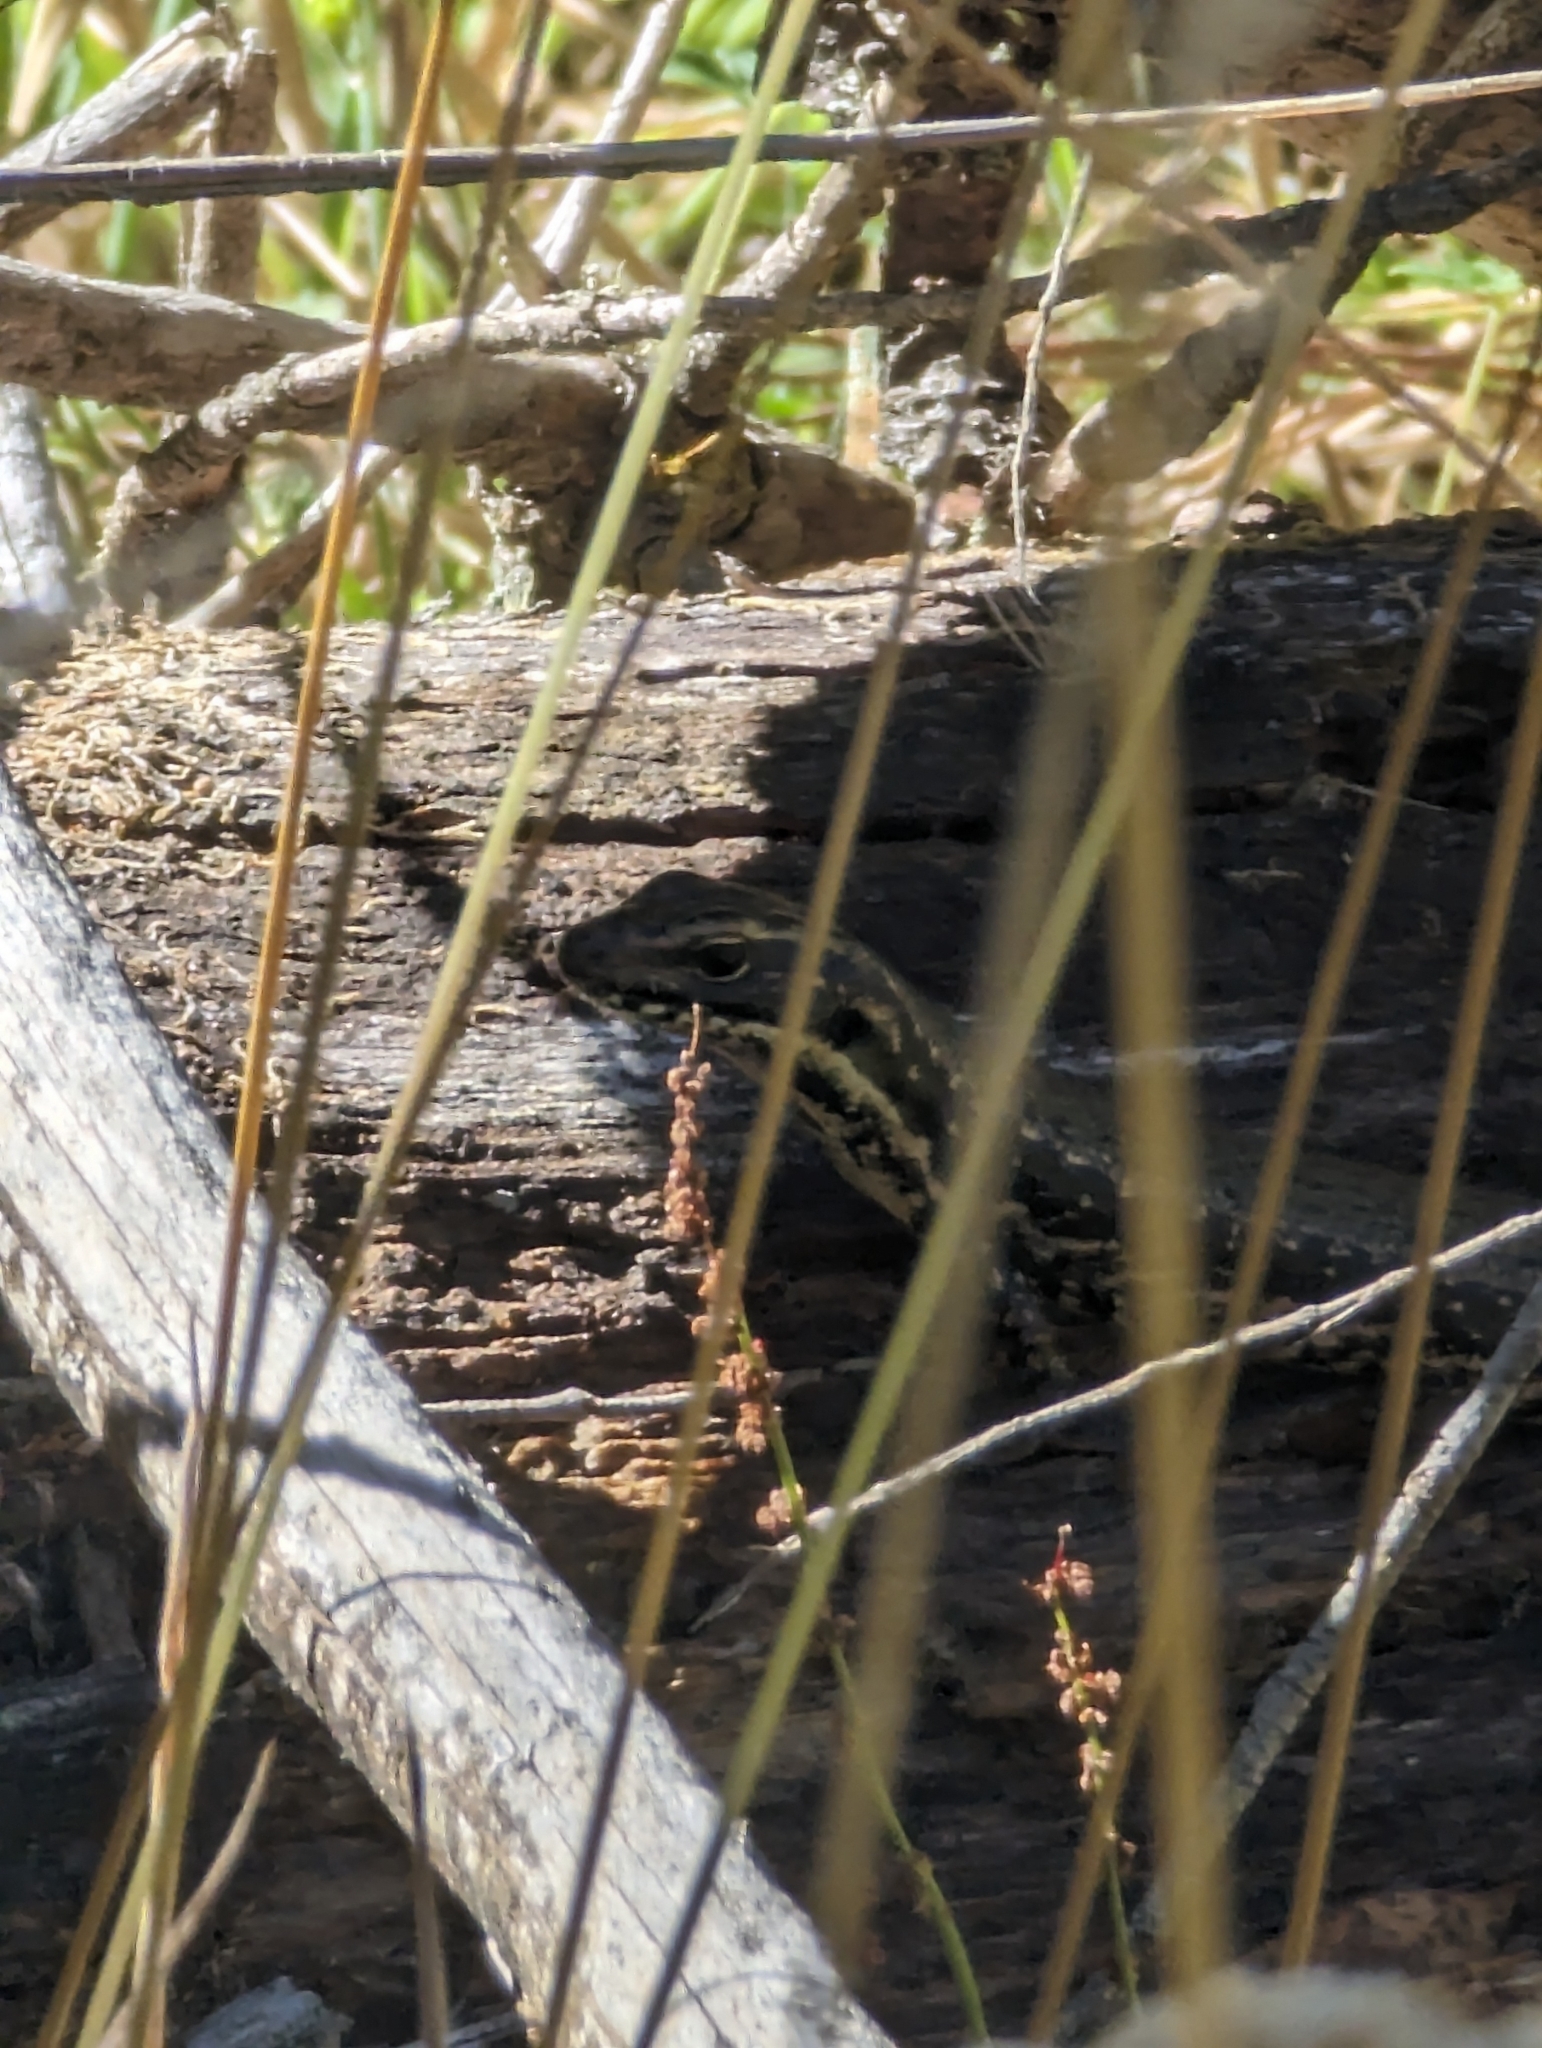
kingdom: Animalia
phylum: Chordata
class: Squamata
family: Scincidae
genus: Eulamprus
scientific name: Eulamprus heatwolei
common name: Warm-temperate water-skink
